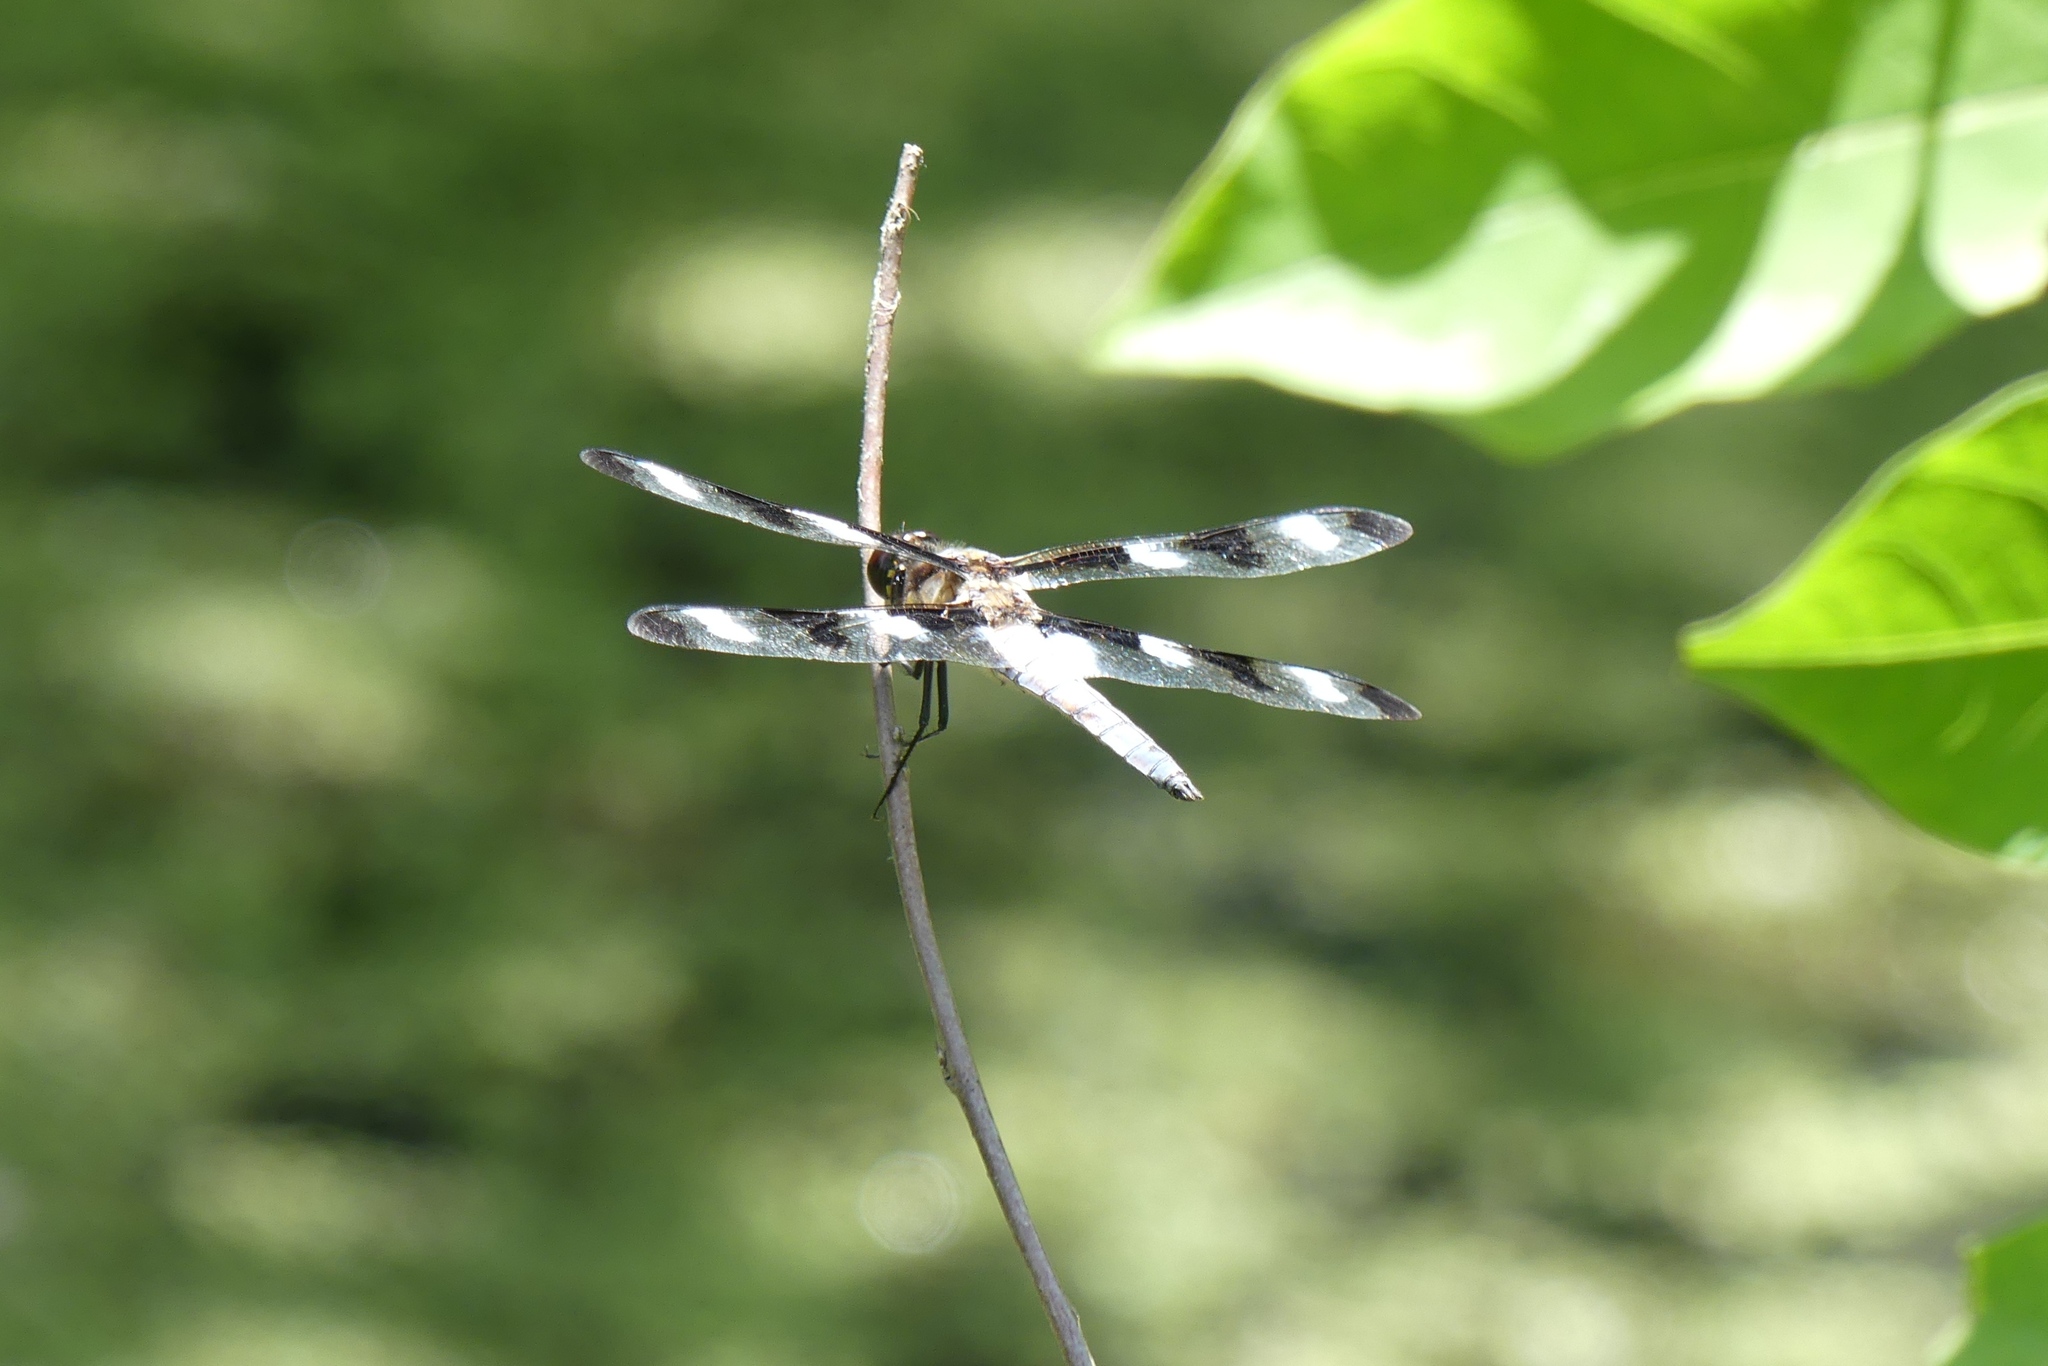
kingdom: Animalia
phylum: Arthropoda
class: Insecta
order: Odonata
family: Libellulidae
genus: Libellula
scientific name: Libellula pulchella
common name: Twelve-spotted skimmer
